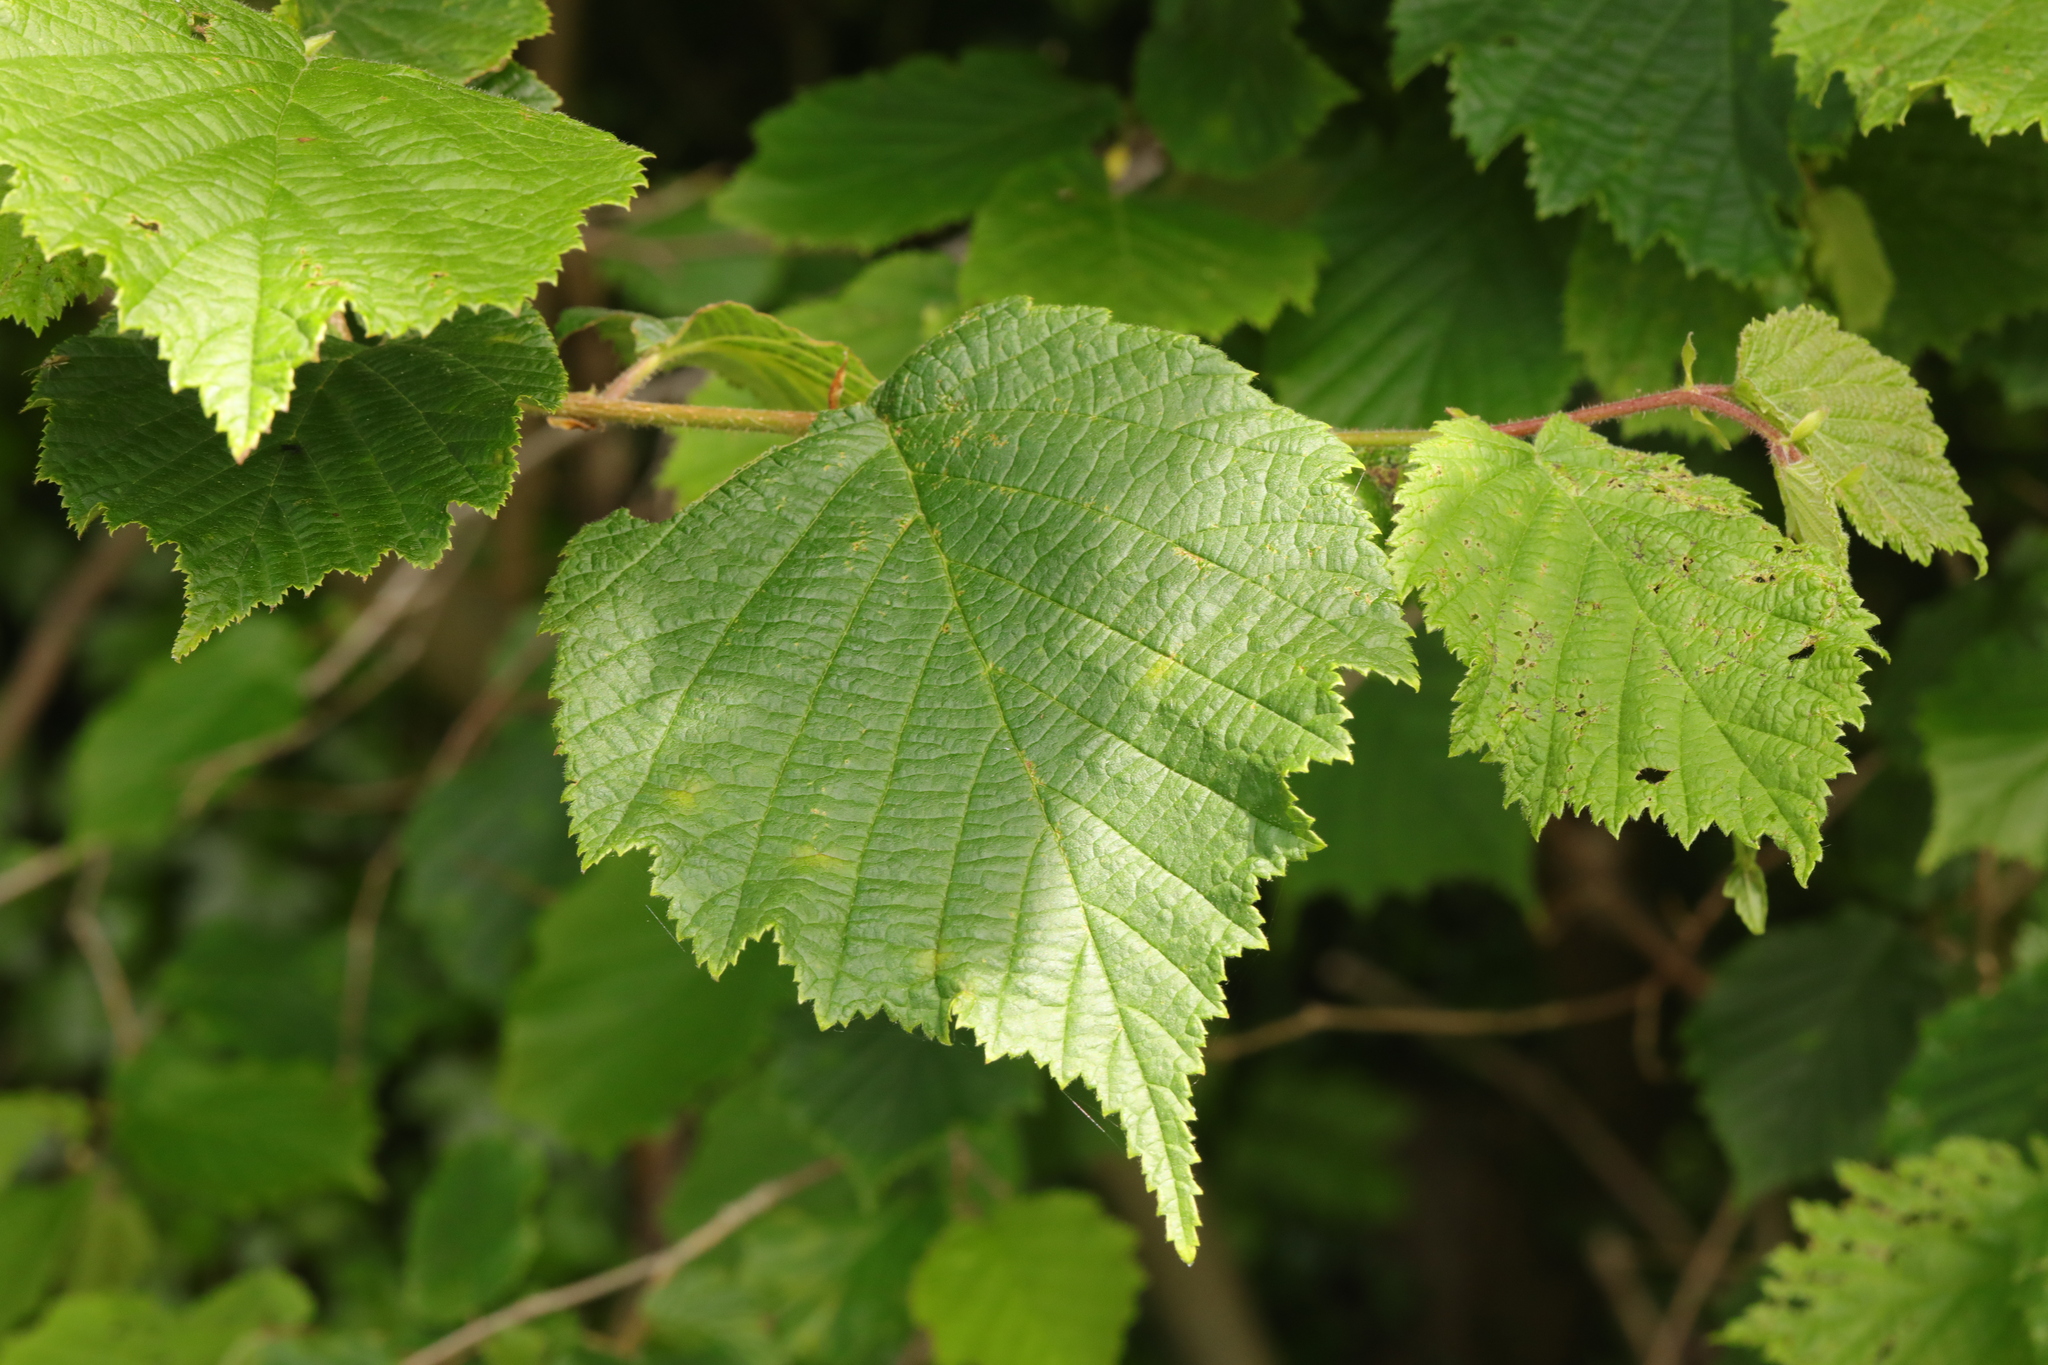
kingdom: Plantae
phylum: Tracheophyta
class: Magnoliopsida
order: Fagales
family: Betulaceae
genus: Corylus
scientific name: Corylus avellana
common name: European hazel
